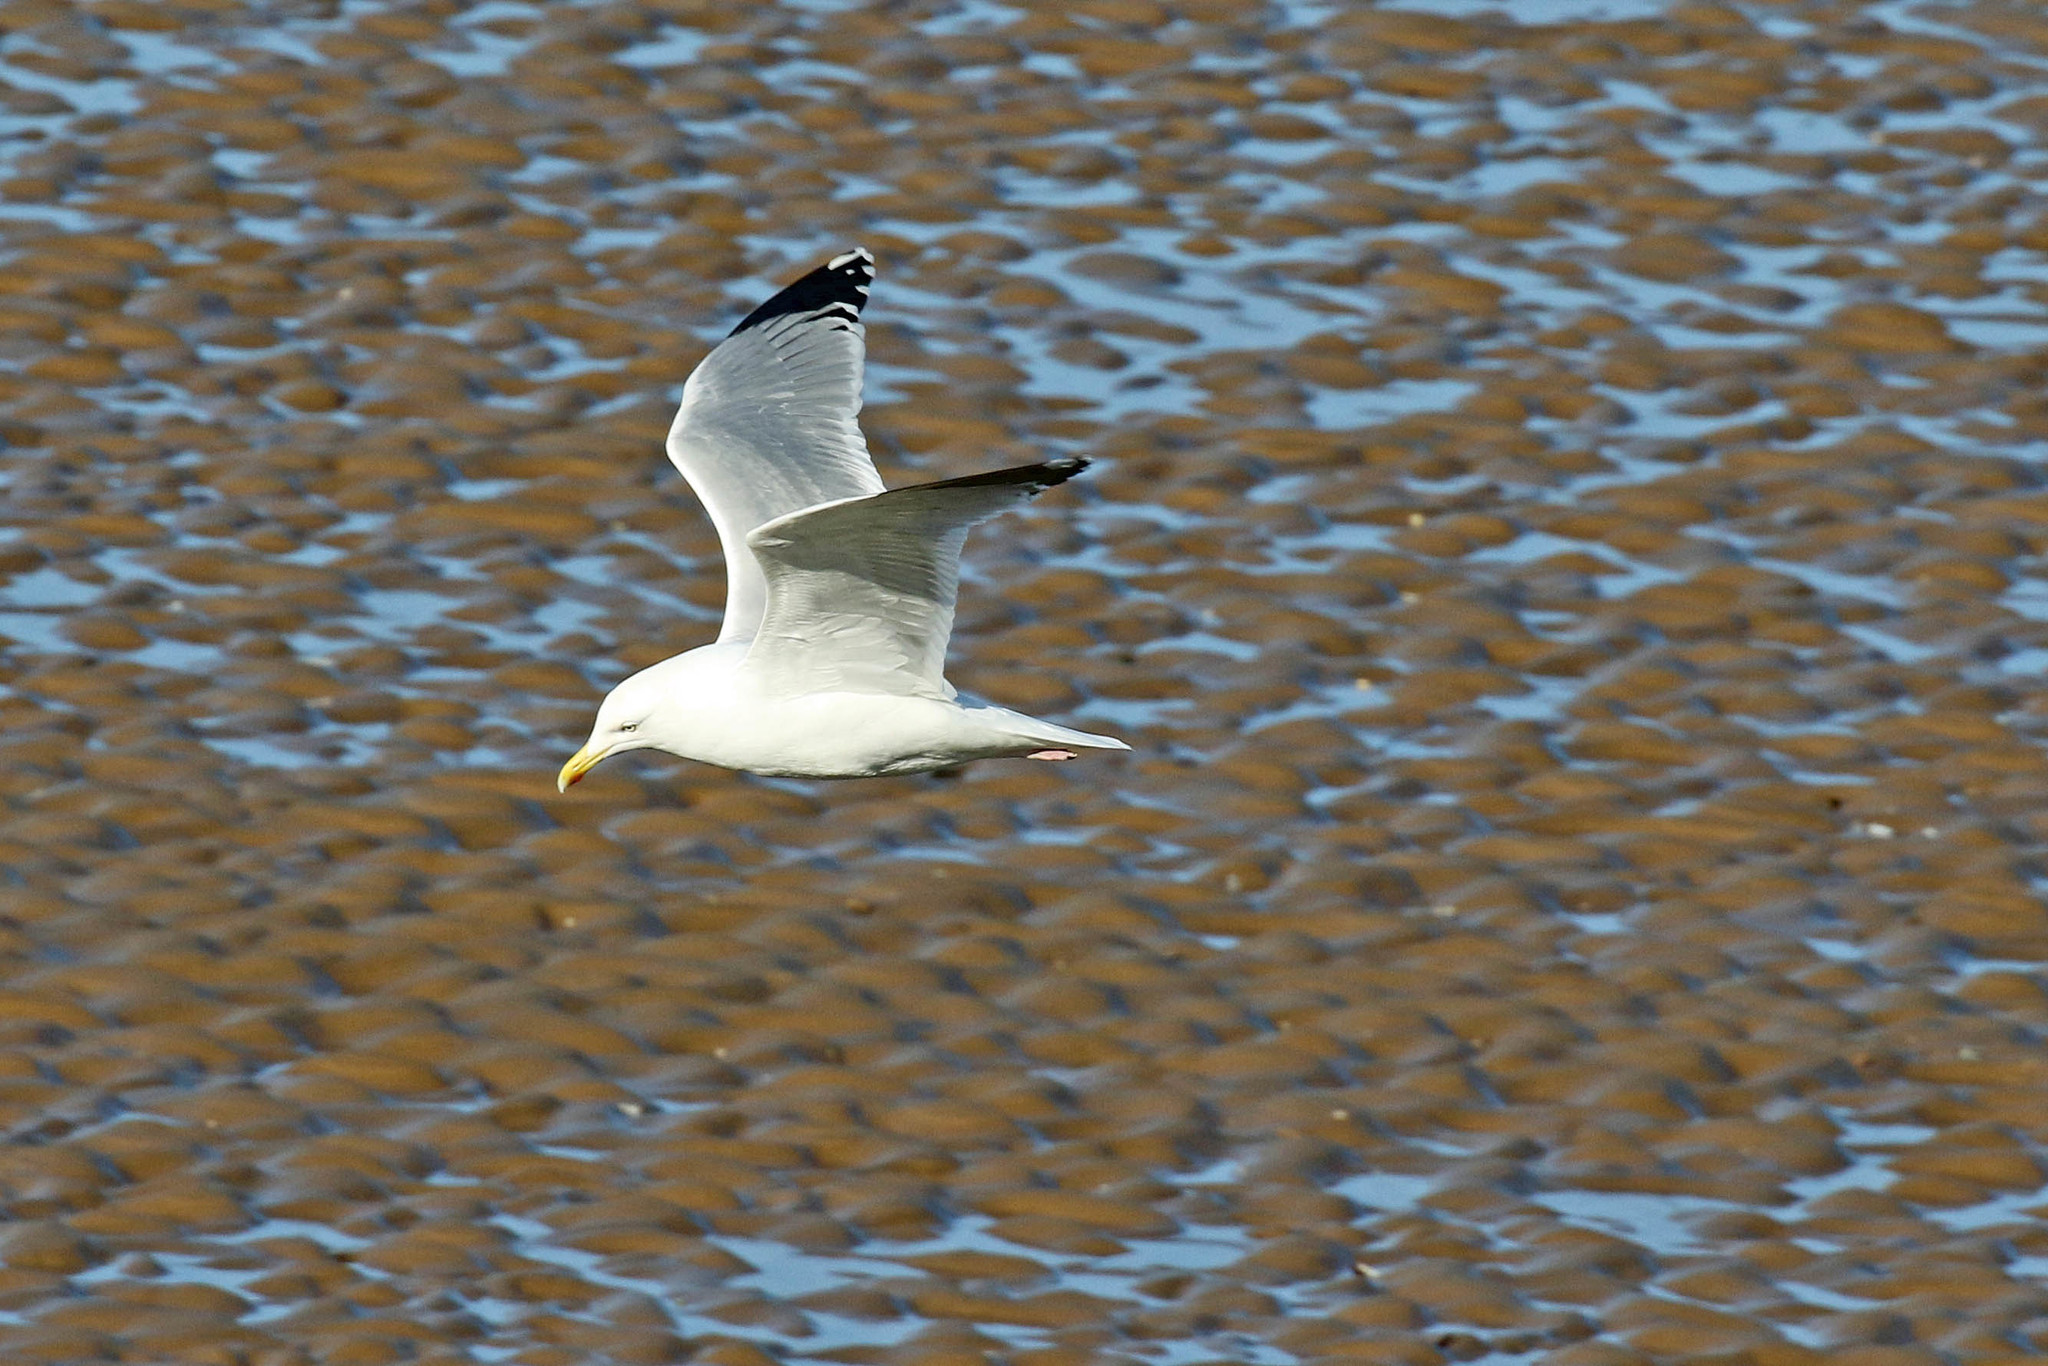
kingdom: Animalia
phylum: Chordata
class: Aves
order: Charadriiformes
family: Laridae
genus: Larus
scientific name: Larus argentatus
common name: Herring gull
